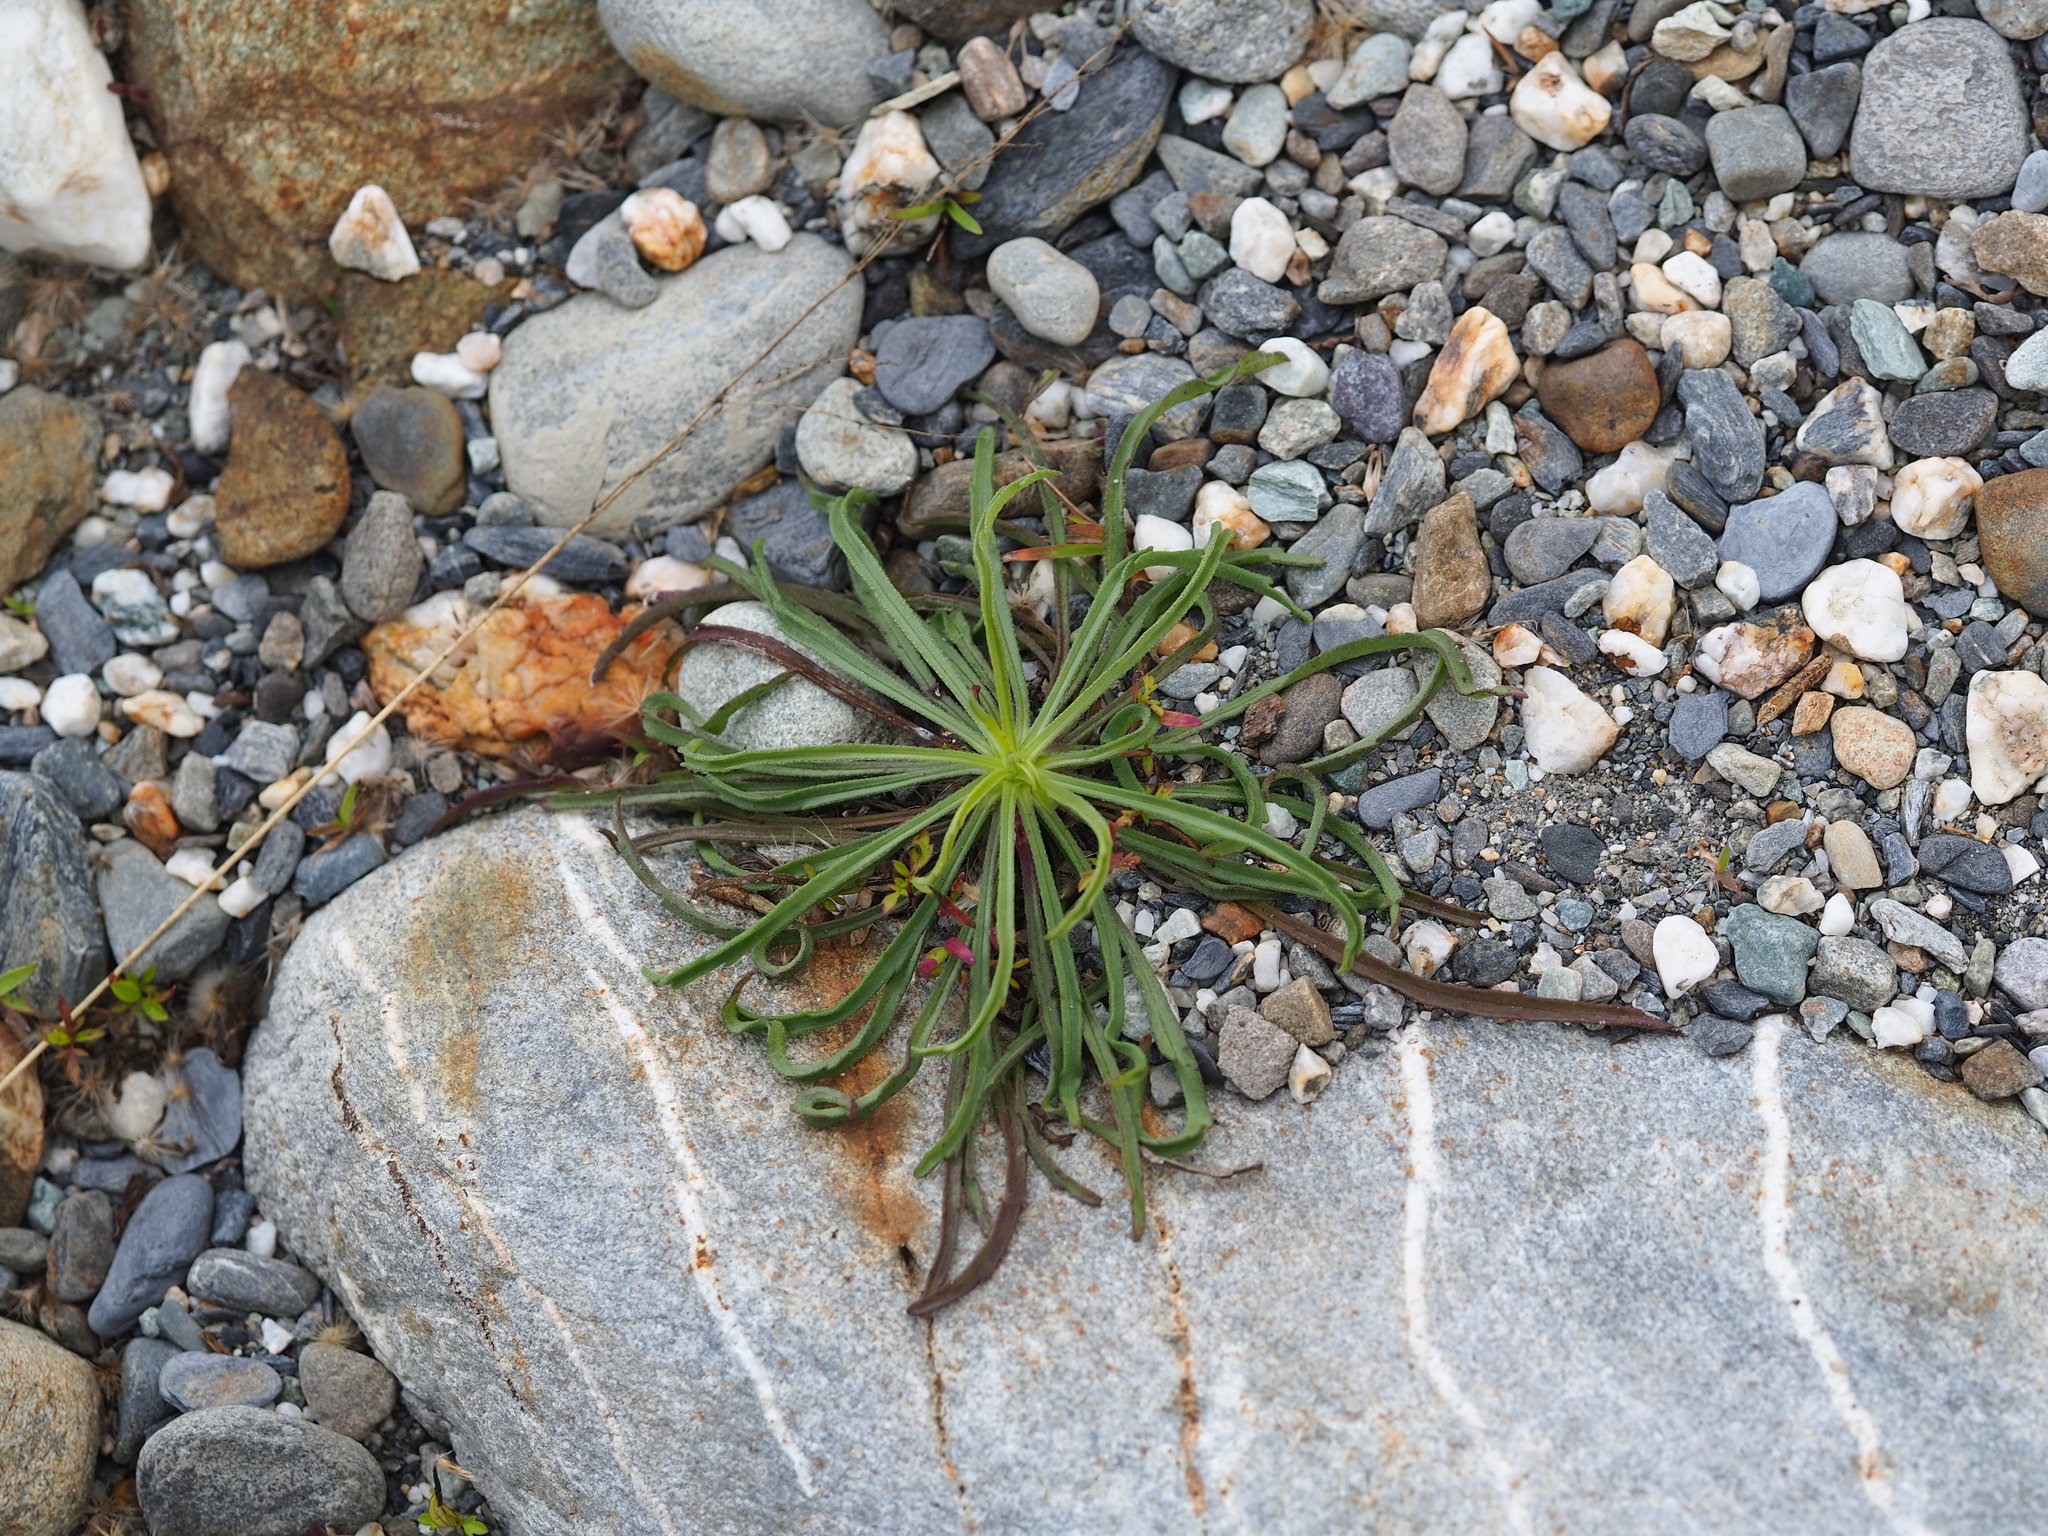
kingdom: Plantae
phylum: Tracheophyta
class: Magnoliopsida
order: Asterales
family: Asteraceae
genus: Heteropappus
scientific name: Heteropappus altaicus
